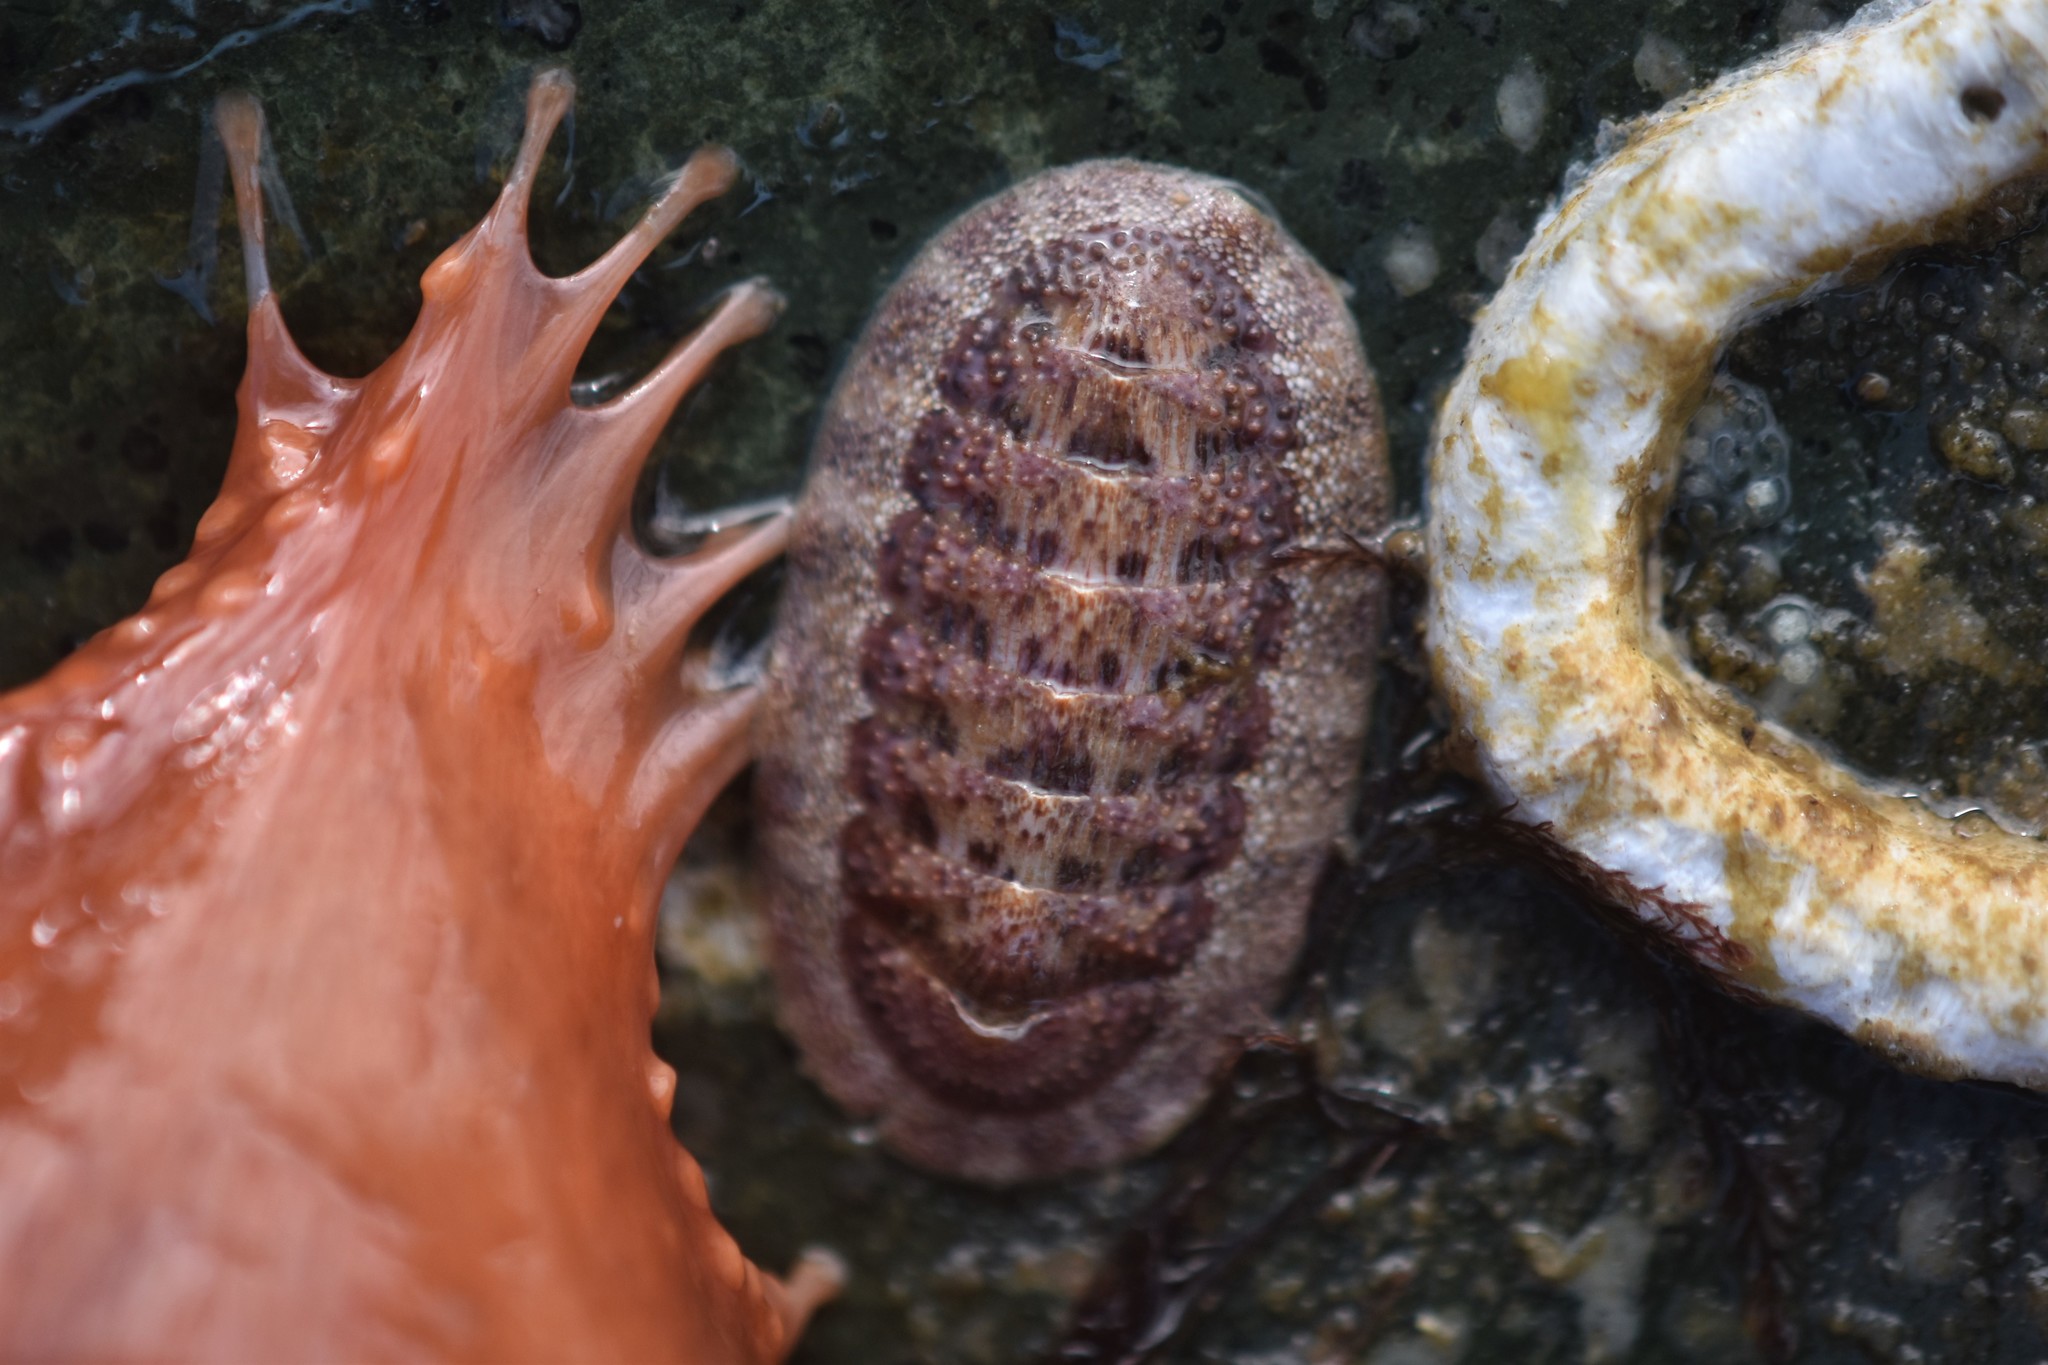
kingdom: Animalia
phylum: Mollusca
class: Polyplacophora
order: Chitonida
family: Ischnochitonidae
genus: Lepidozona
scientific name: Lepidozona mertensii
